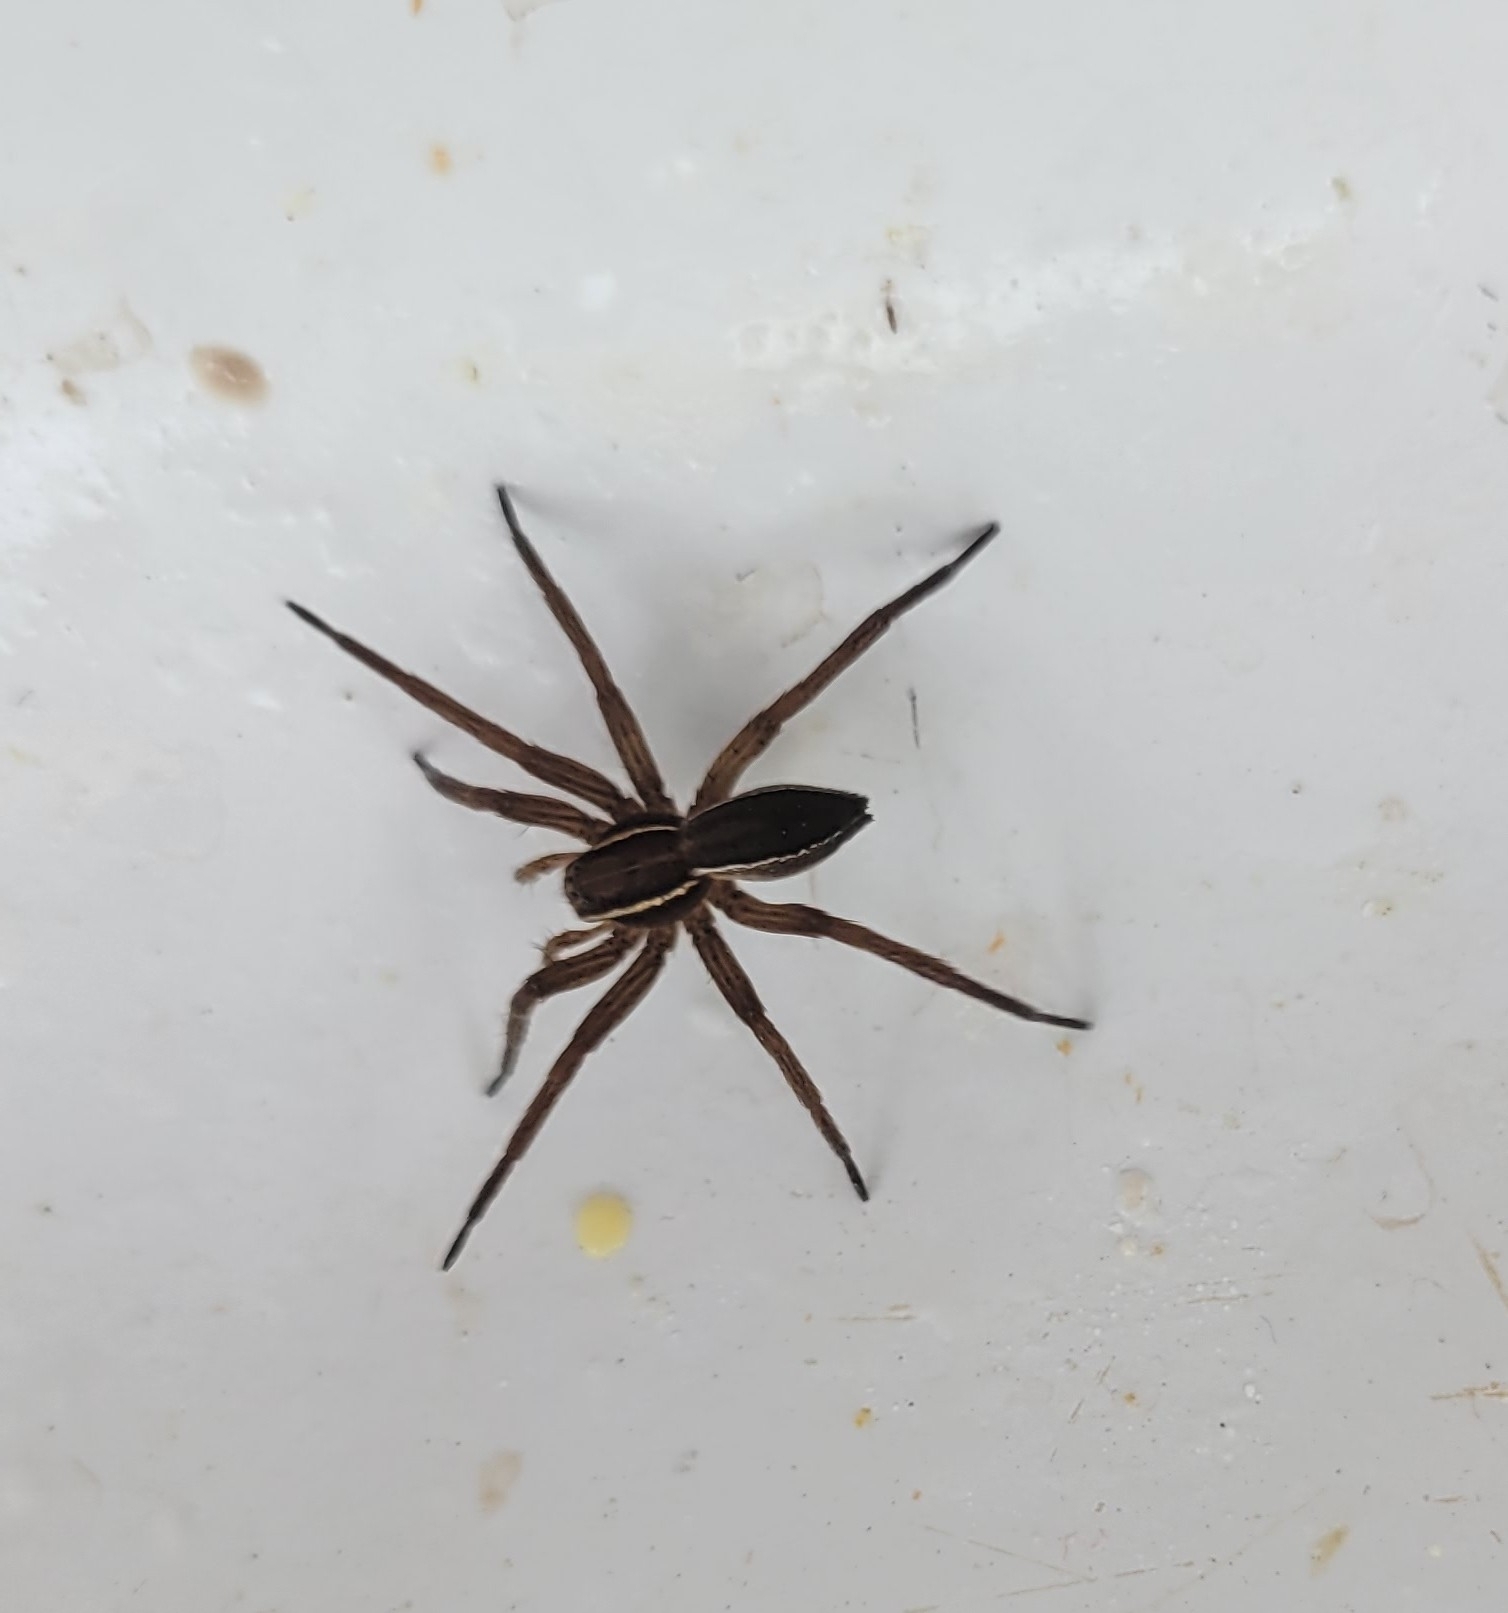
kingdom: Animalia
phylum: Arthropoda
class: Arachnida
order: Araneae
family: Pisauridae
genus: Dolomedes
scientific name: Dolomedes striatus
